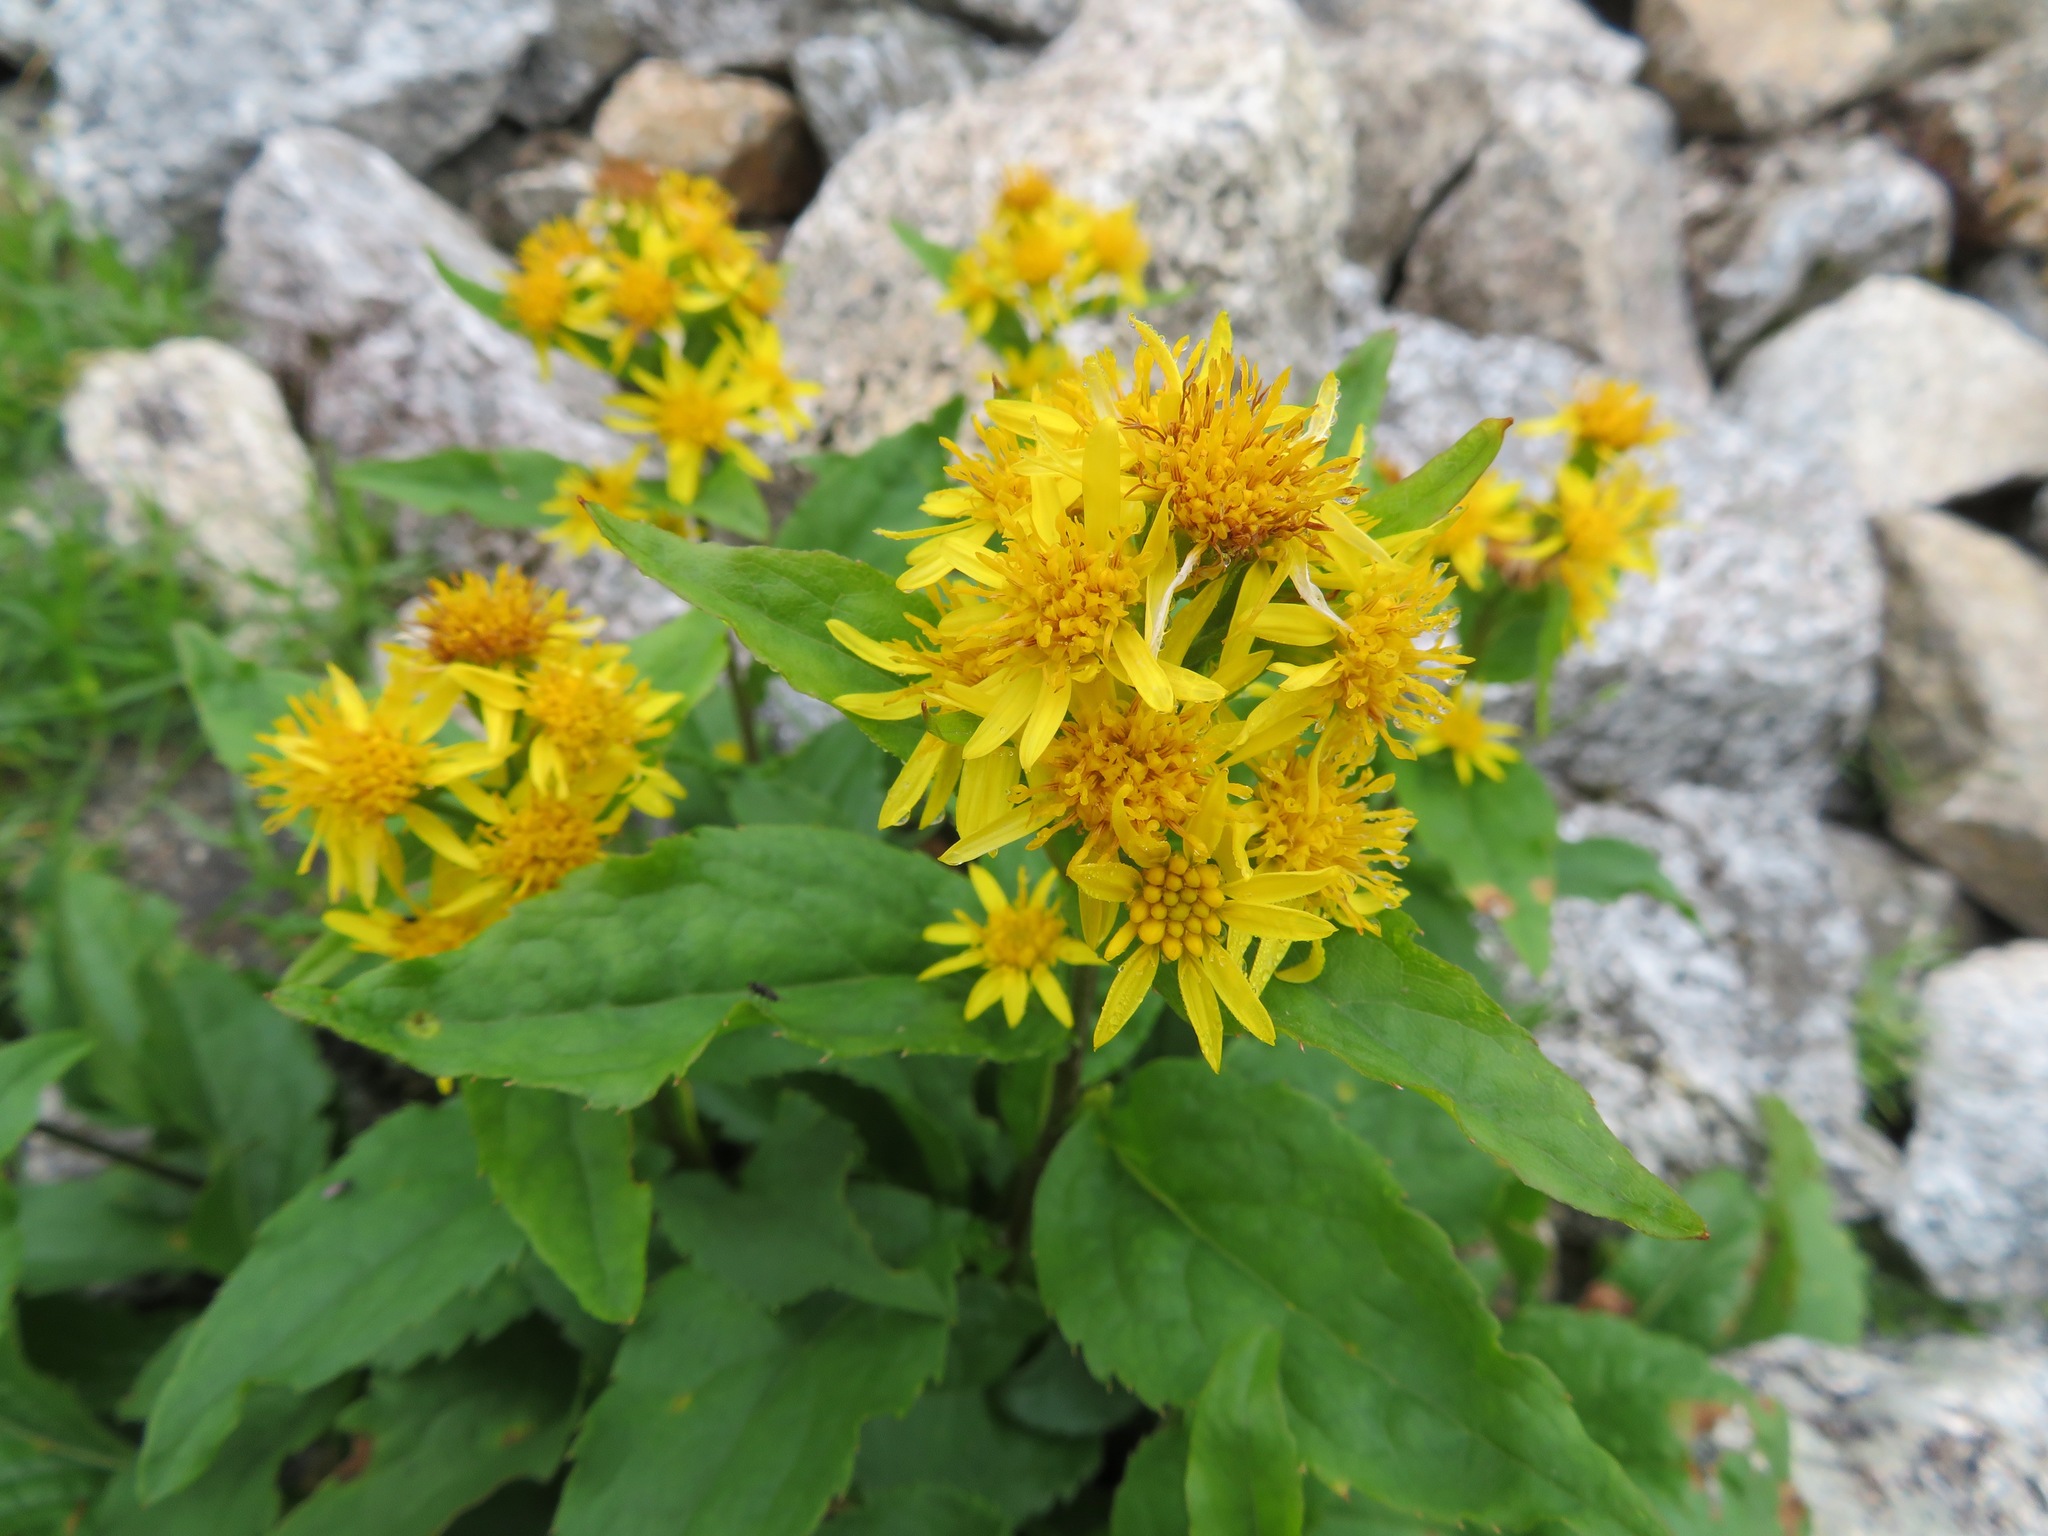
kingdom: Plantae
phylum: Tracheophyta
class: Magnoliopsida
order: Asterales
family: Asteraceae
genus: Solidago
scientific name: Solidago decurrens
